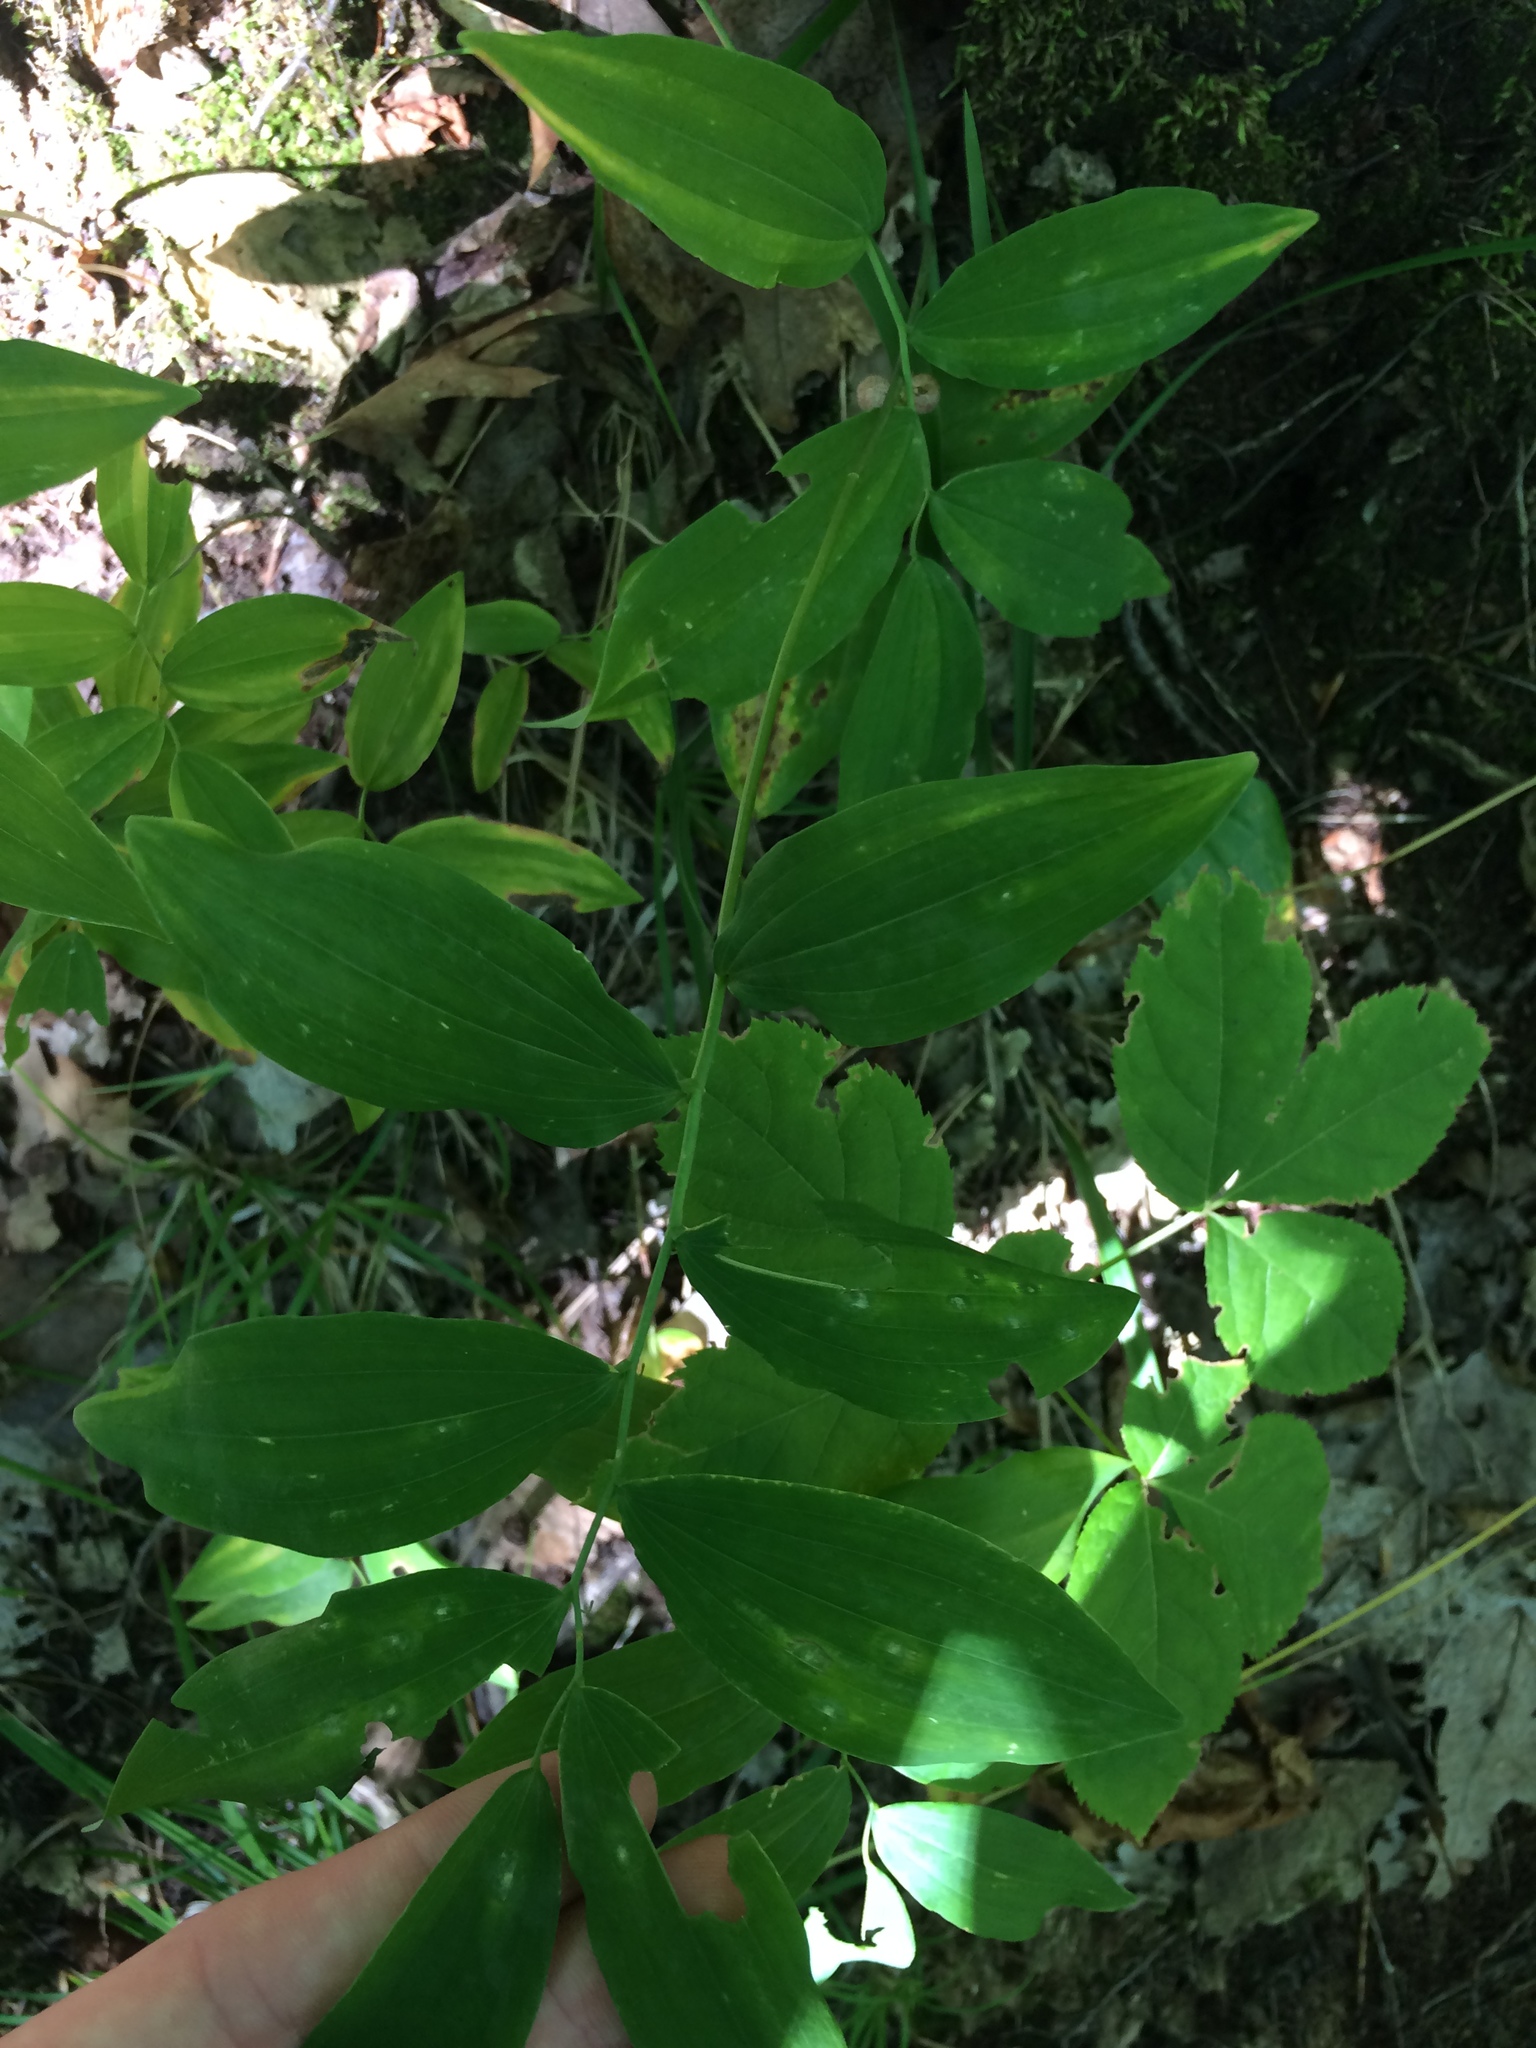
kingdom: Plantae
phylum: Tracheophyta
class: Liliopsida
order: Asparagales
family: Asparagaceae
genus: Polygonatum
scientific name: Polygonatum pubescens
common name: Downy solomon's seal
